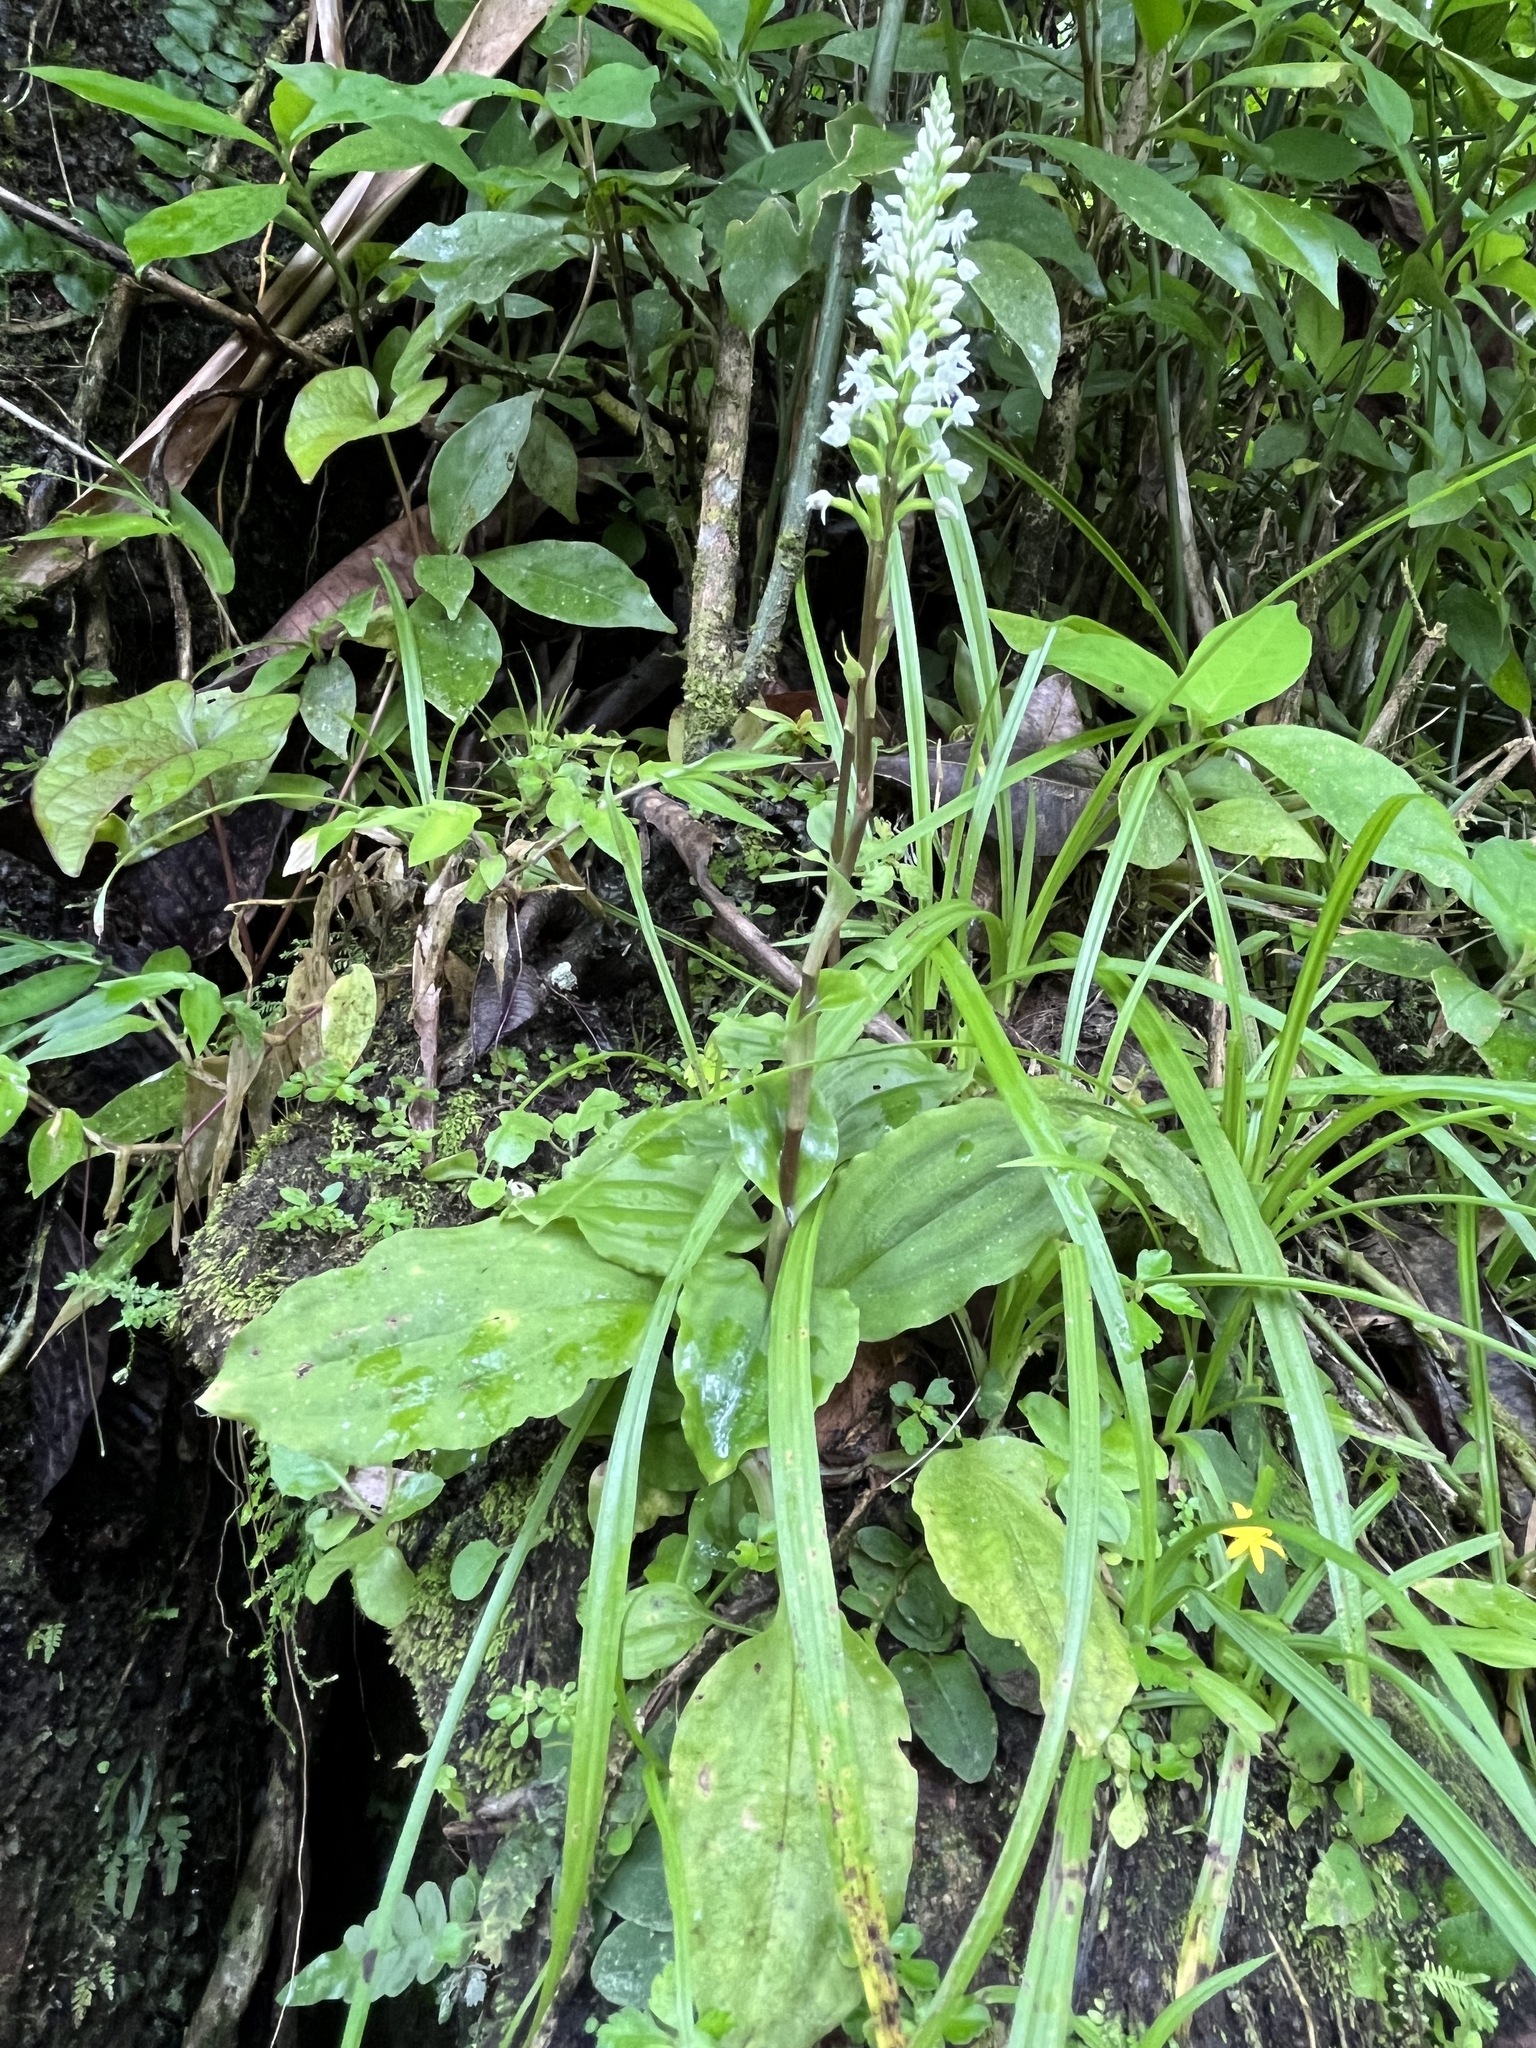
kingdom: Plantae
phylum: Tracheophyta
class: Liliopsida
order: Asparagales
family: Orchidaceae
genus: Cranichis
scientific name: Cranichis muscosa
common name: Cypress-knee helmet orchid
